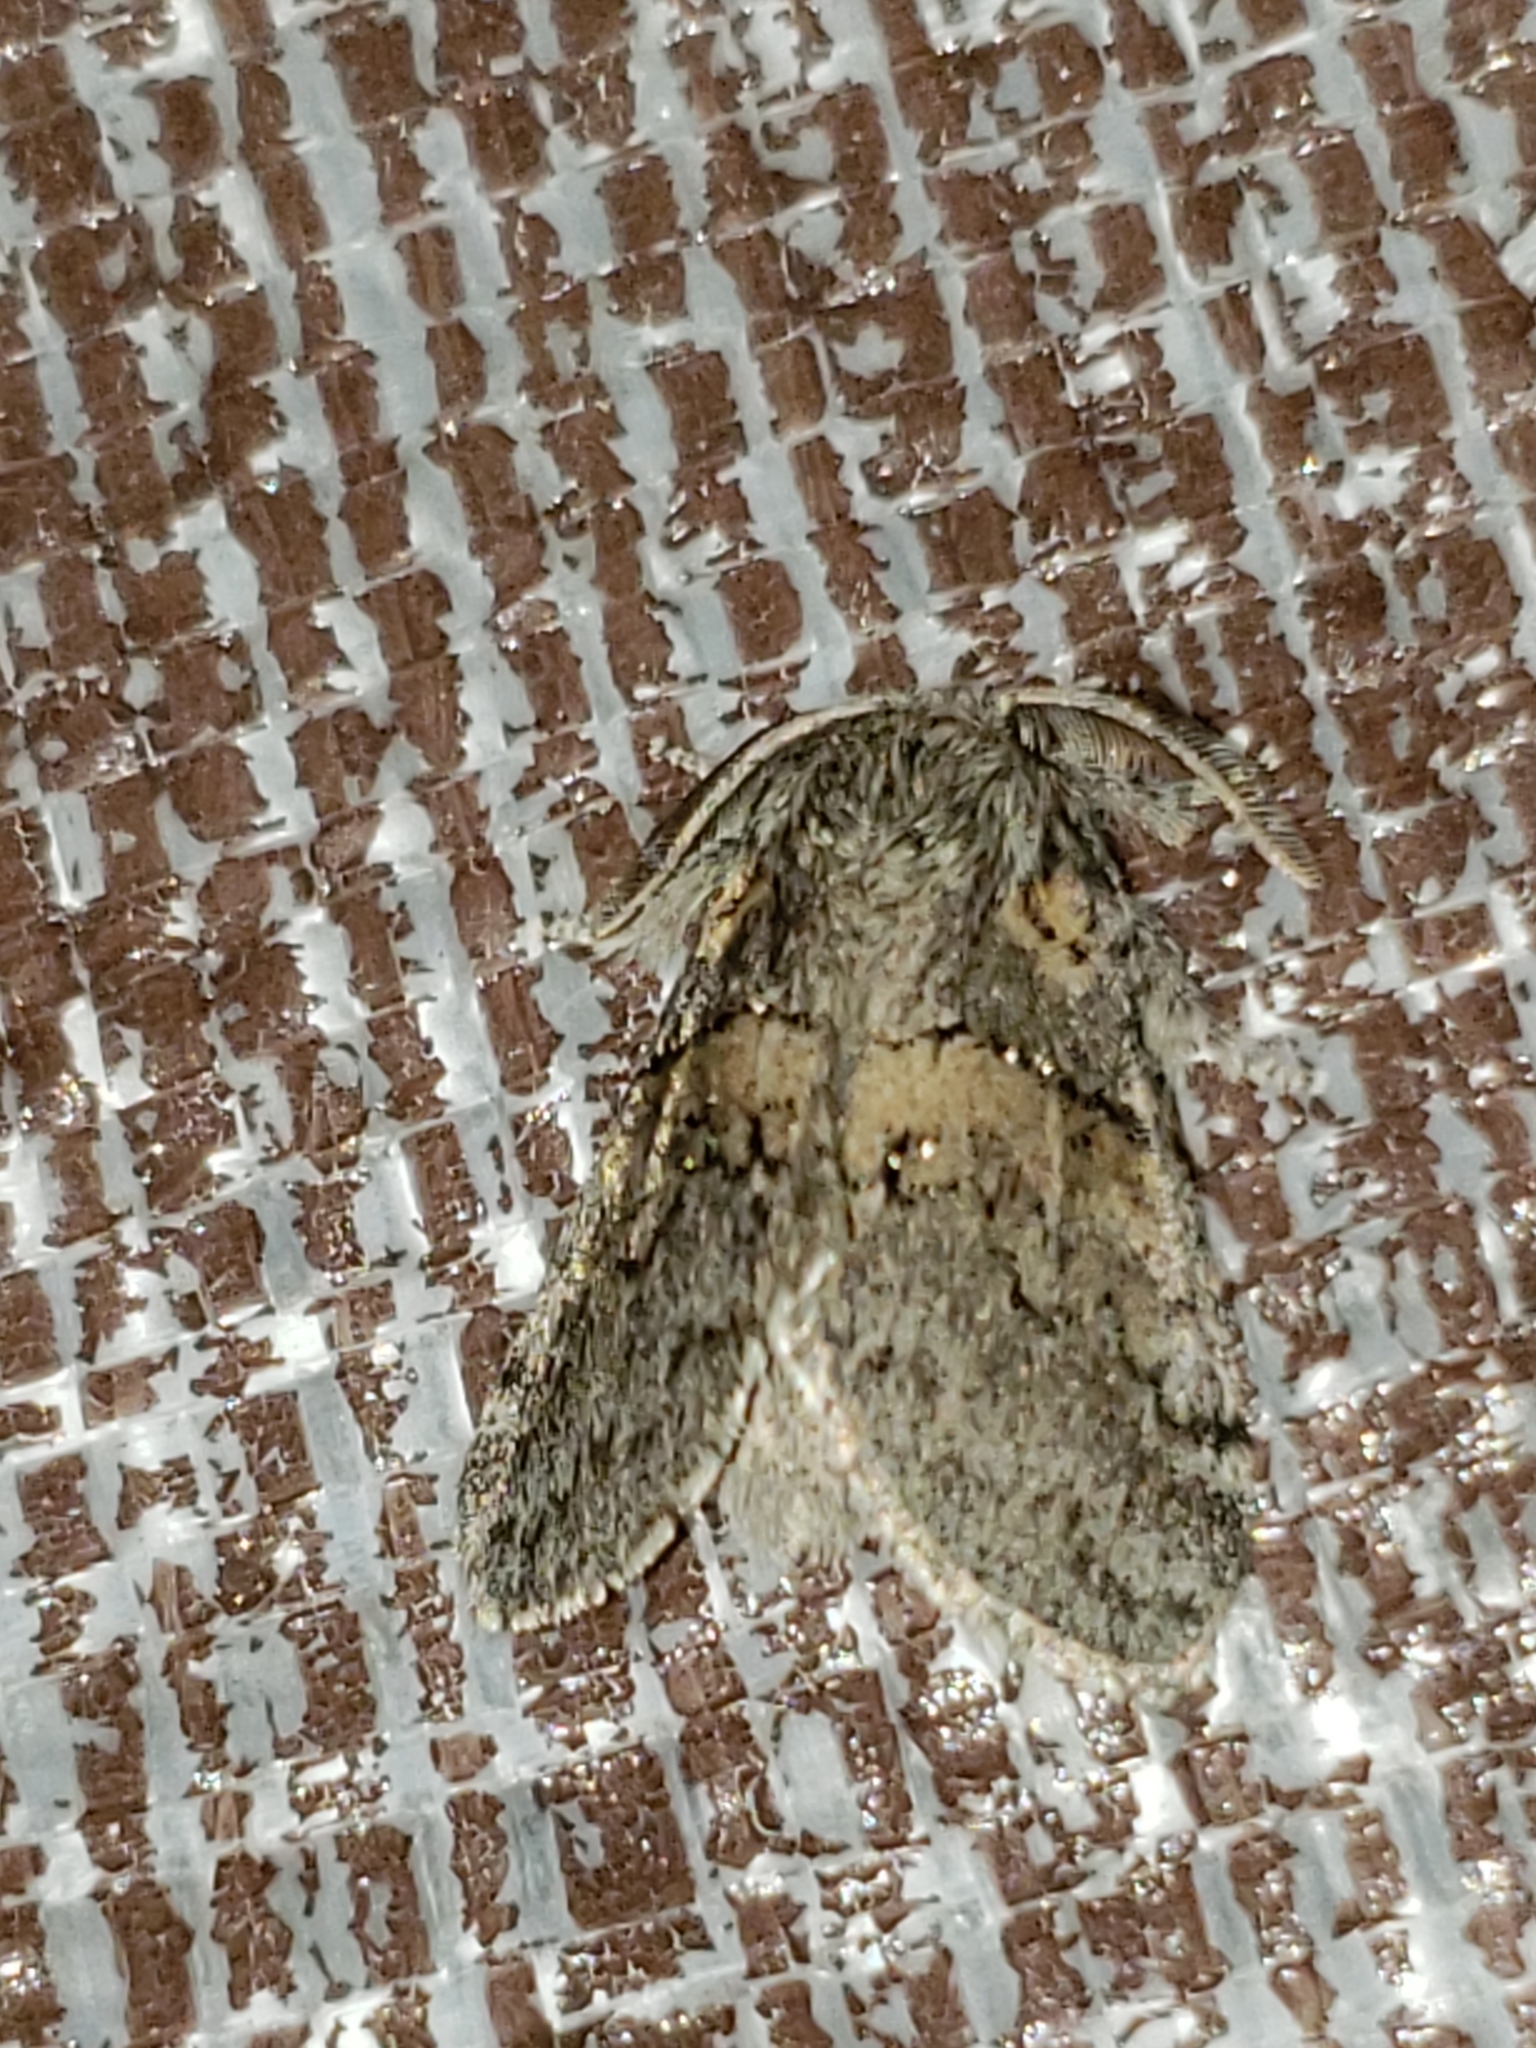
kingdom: Animalia
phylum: Arthropoda
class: Insecta
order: Lepidoptera
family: Notodontidae
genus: Gluphisia
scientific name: Gluphisia septentrionis
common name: Common gluphisia
